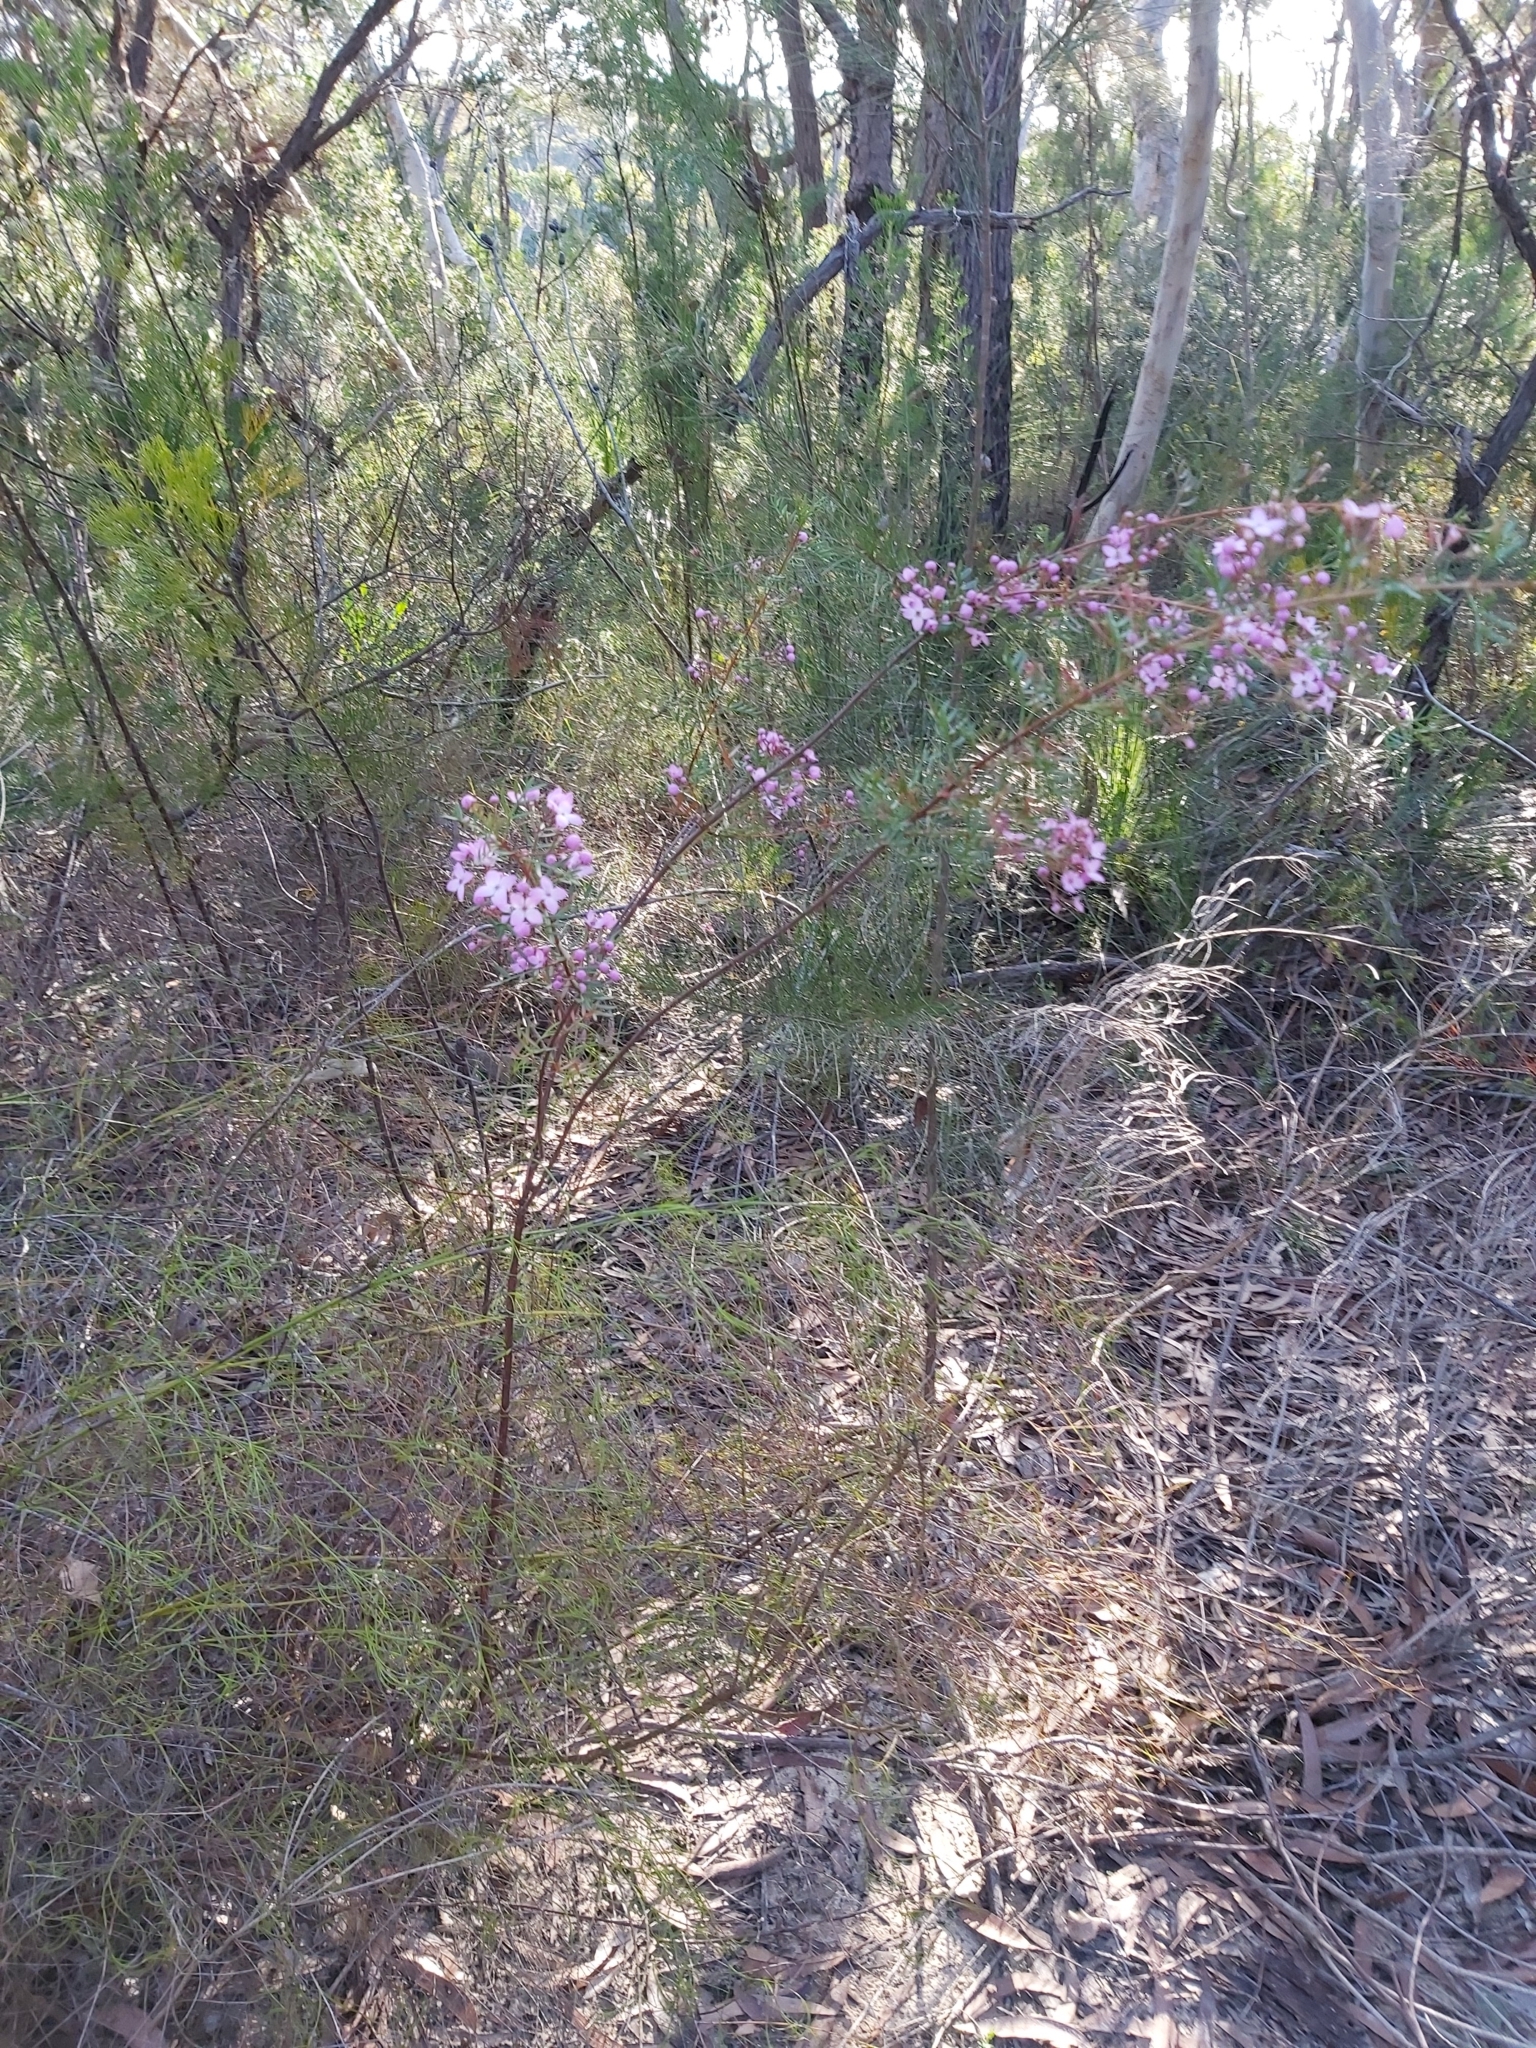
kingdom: Plantae
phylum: Tracheophyta
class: Magnoliopsida
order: Sapindales
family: Rutaceae
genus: Boronia
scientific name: Boronia pinnata
